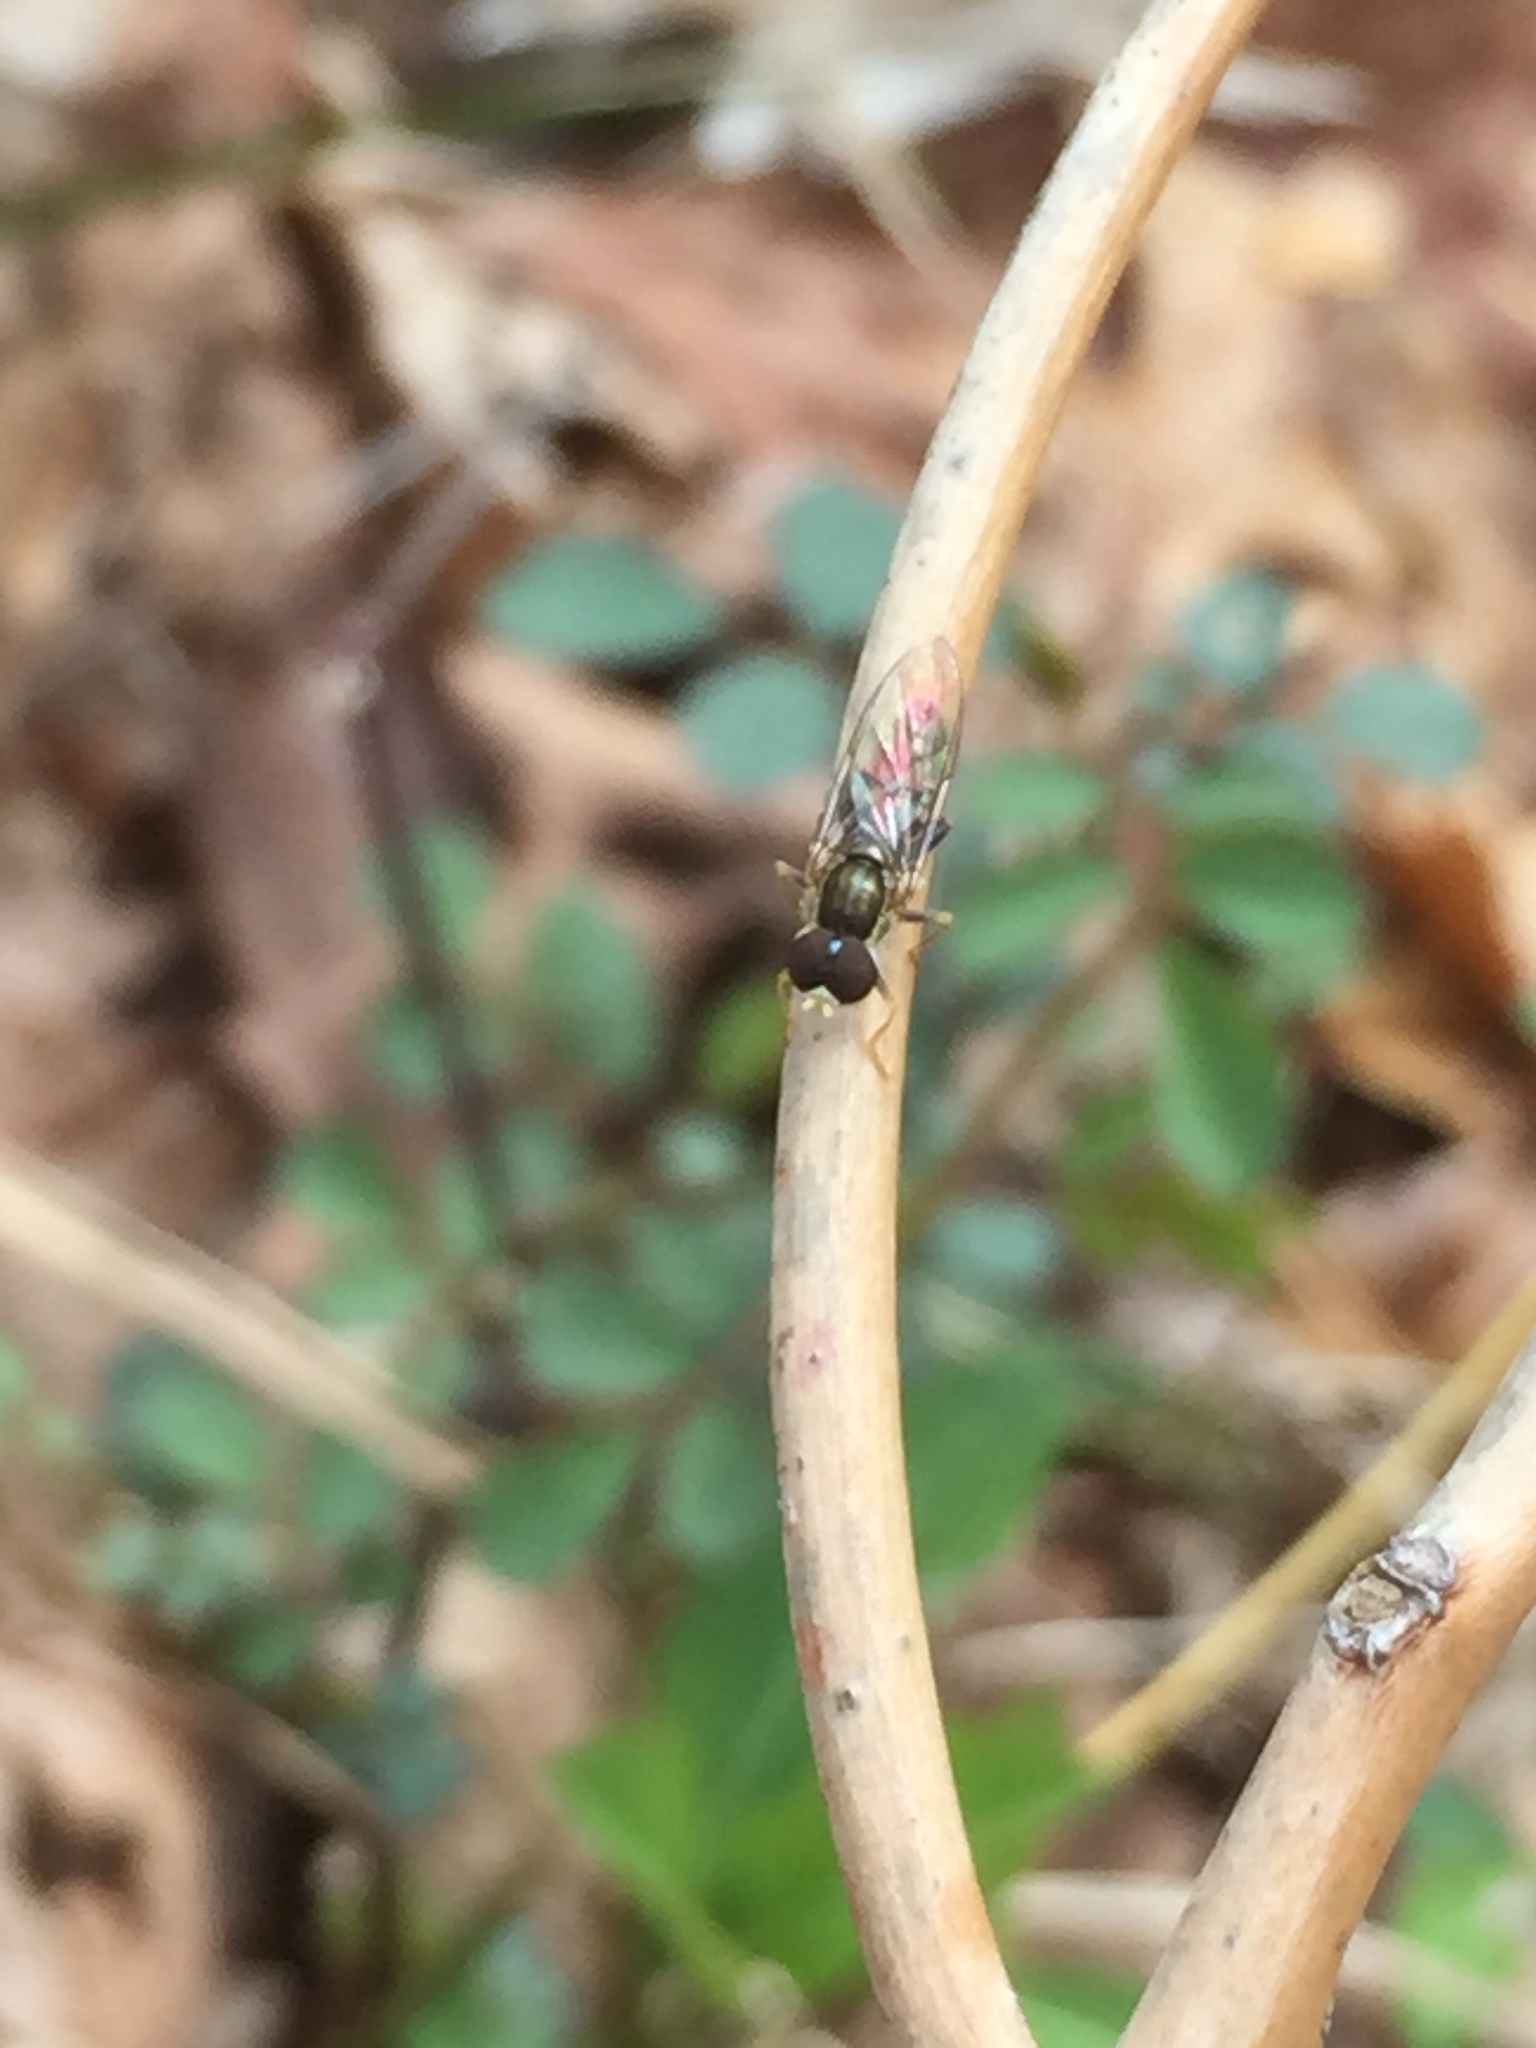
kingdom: Animalia
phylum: Arthropoda
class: Insecta
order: Diptera
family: Syrphidae
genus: Toxomerus
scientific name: Toxomerus geminatus
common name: Eastern calligrapher
